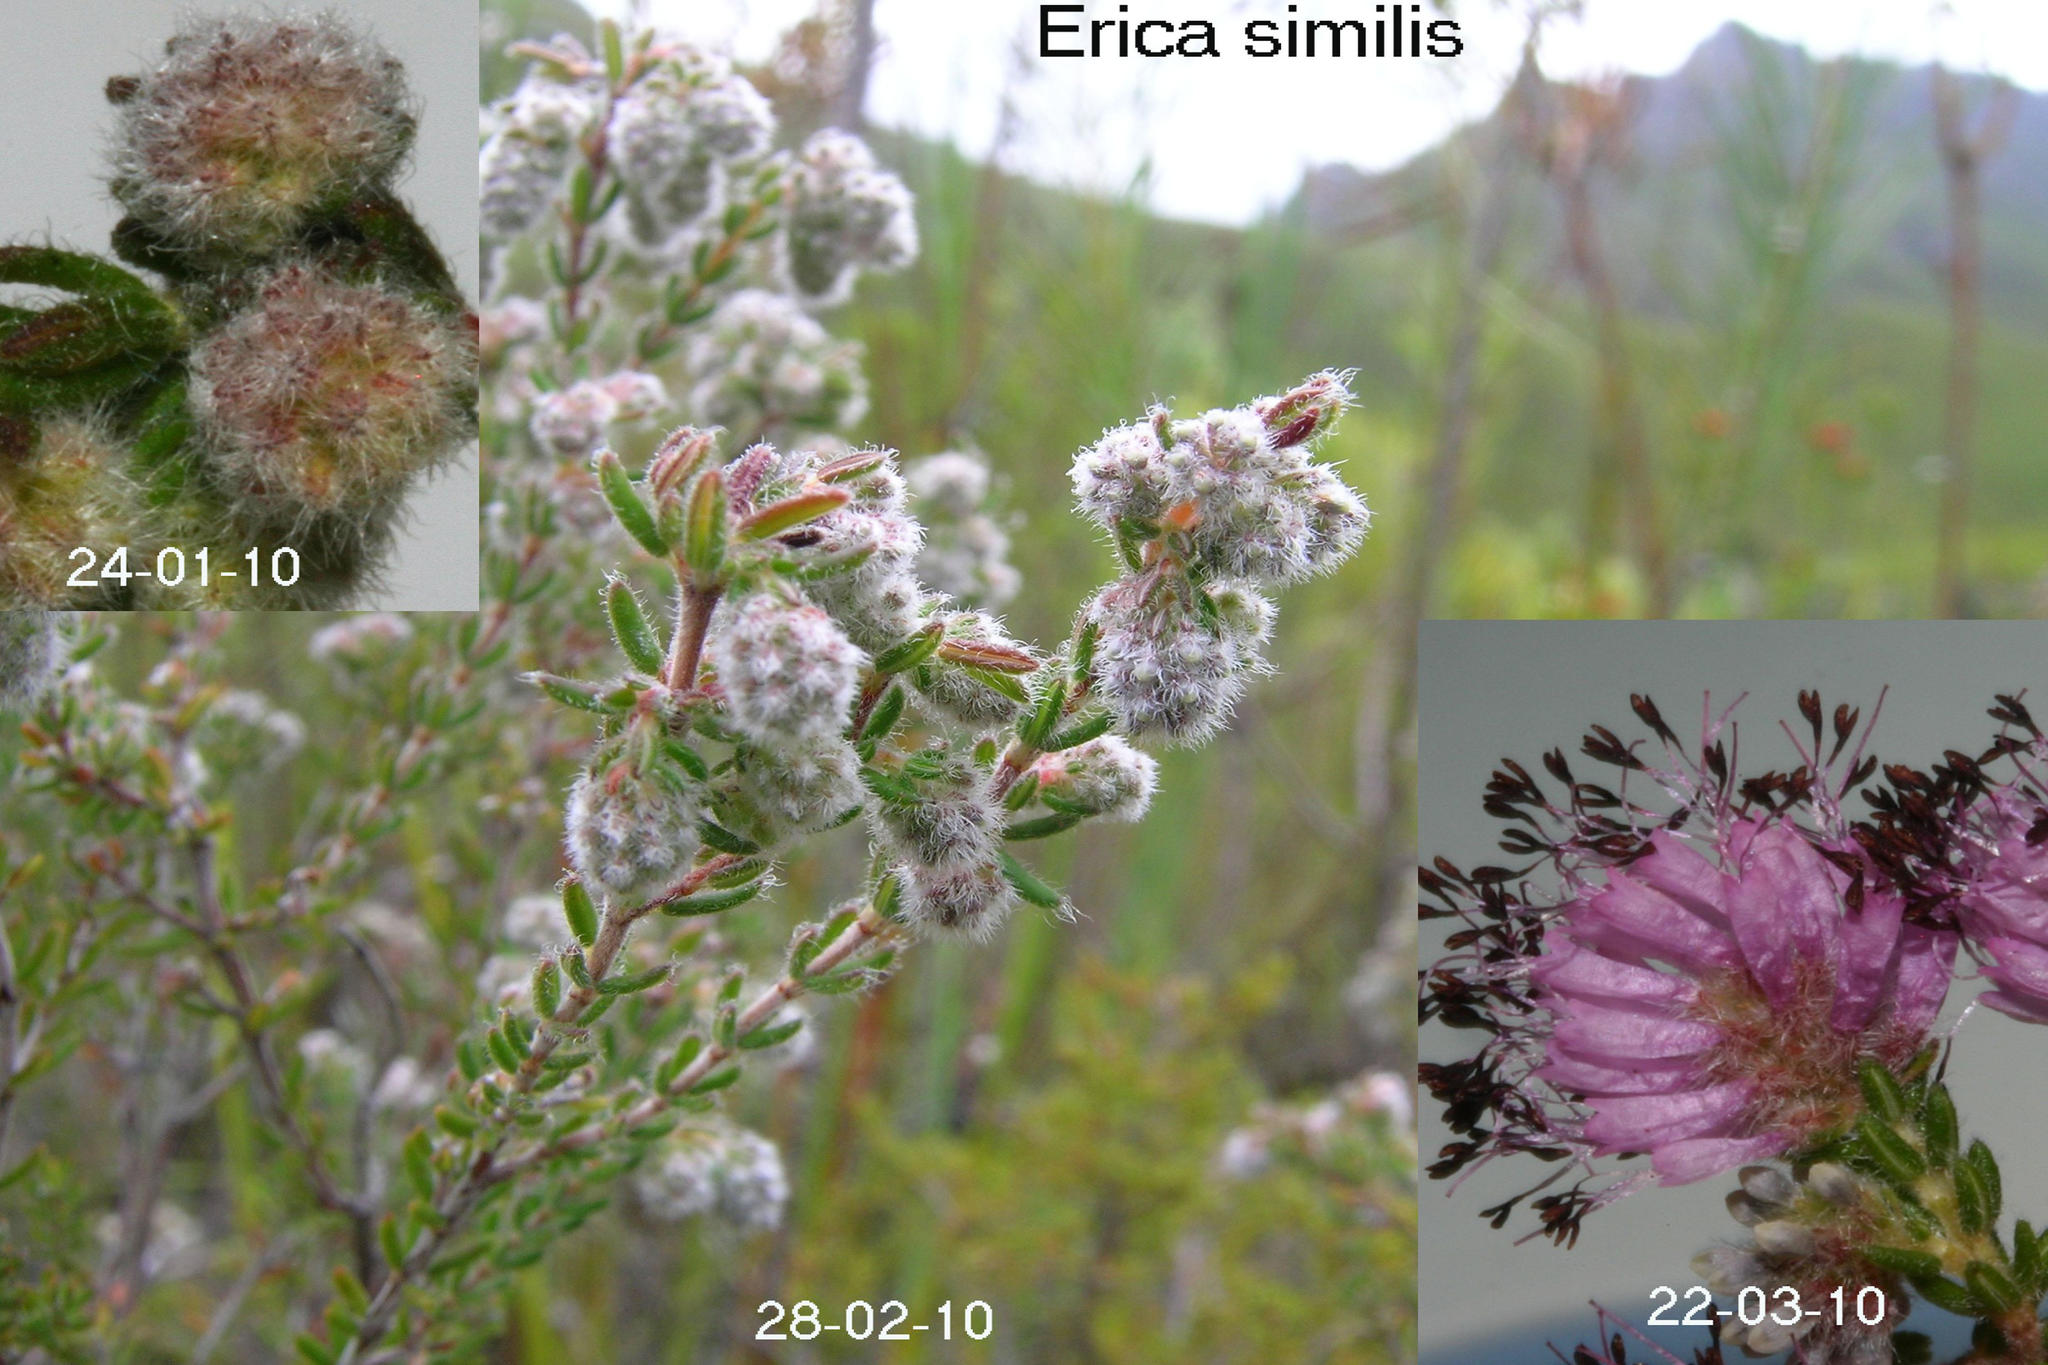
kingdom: Plantae
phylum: Tracheophyta
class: Magnoliopsida
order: Ericales
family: Ericaceae
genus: Erica
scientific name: Erica similis
